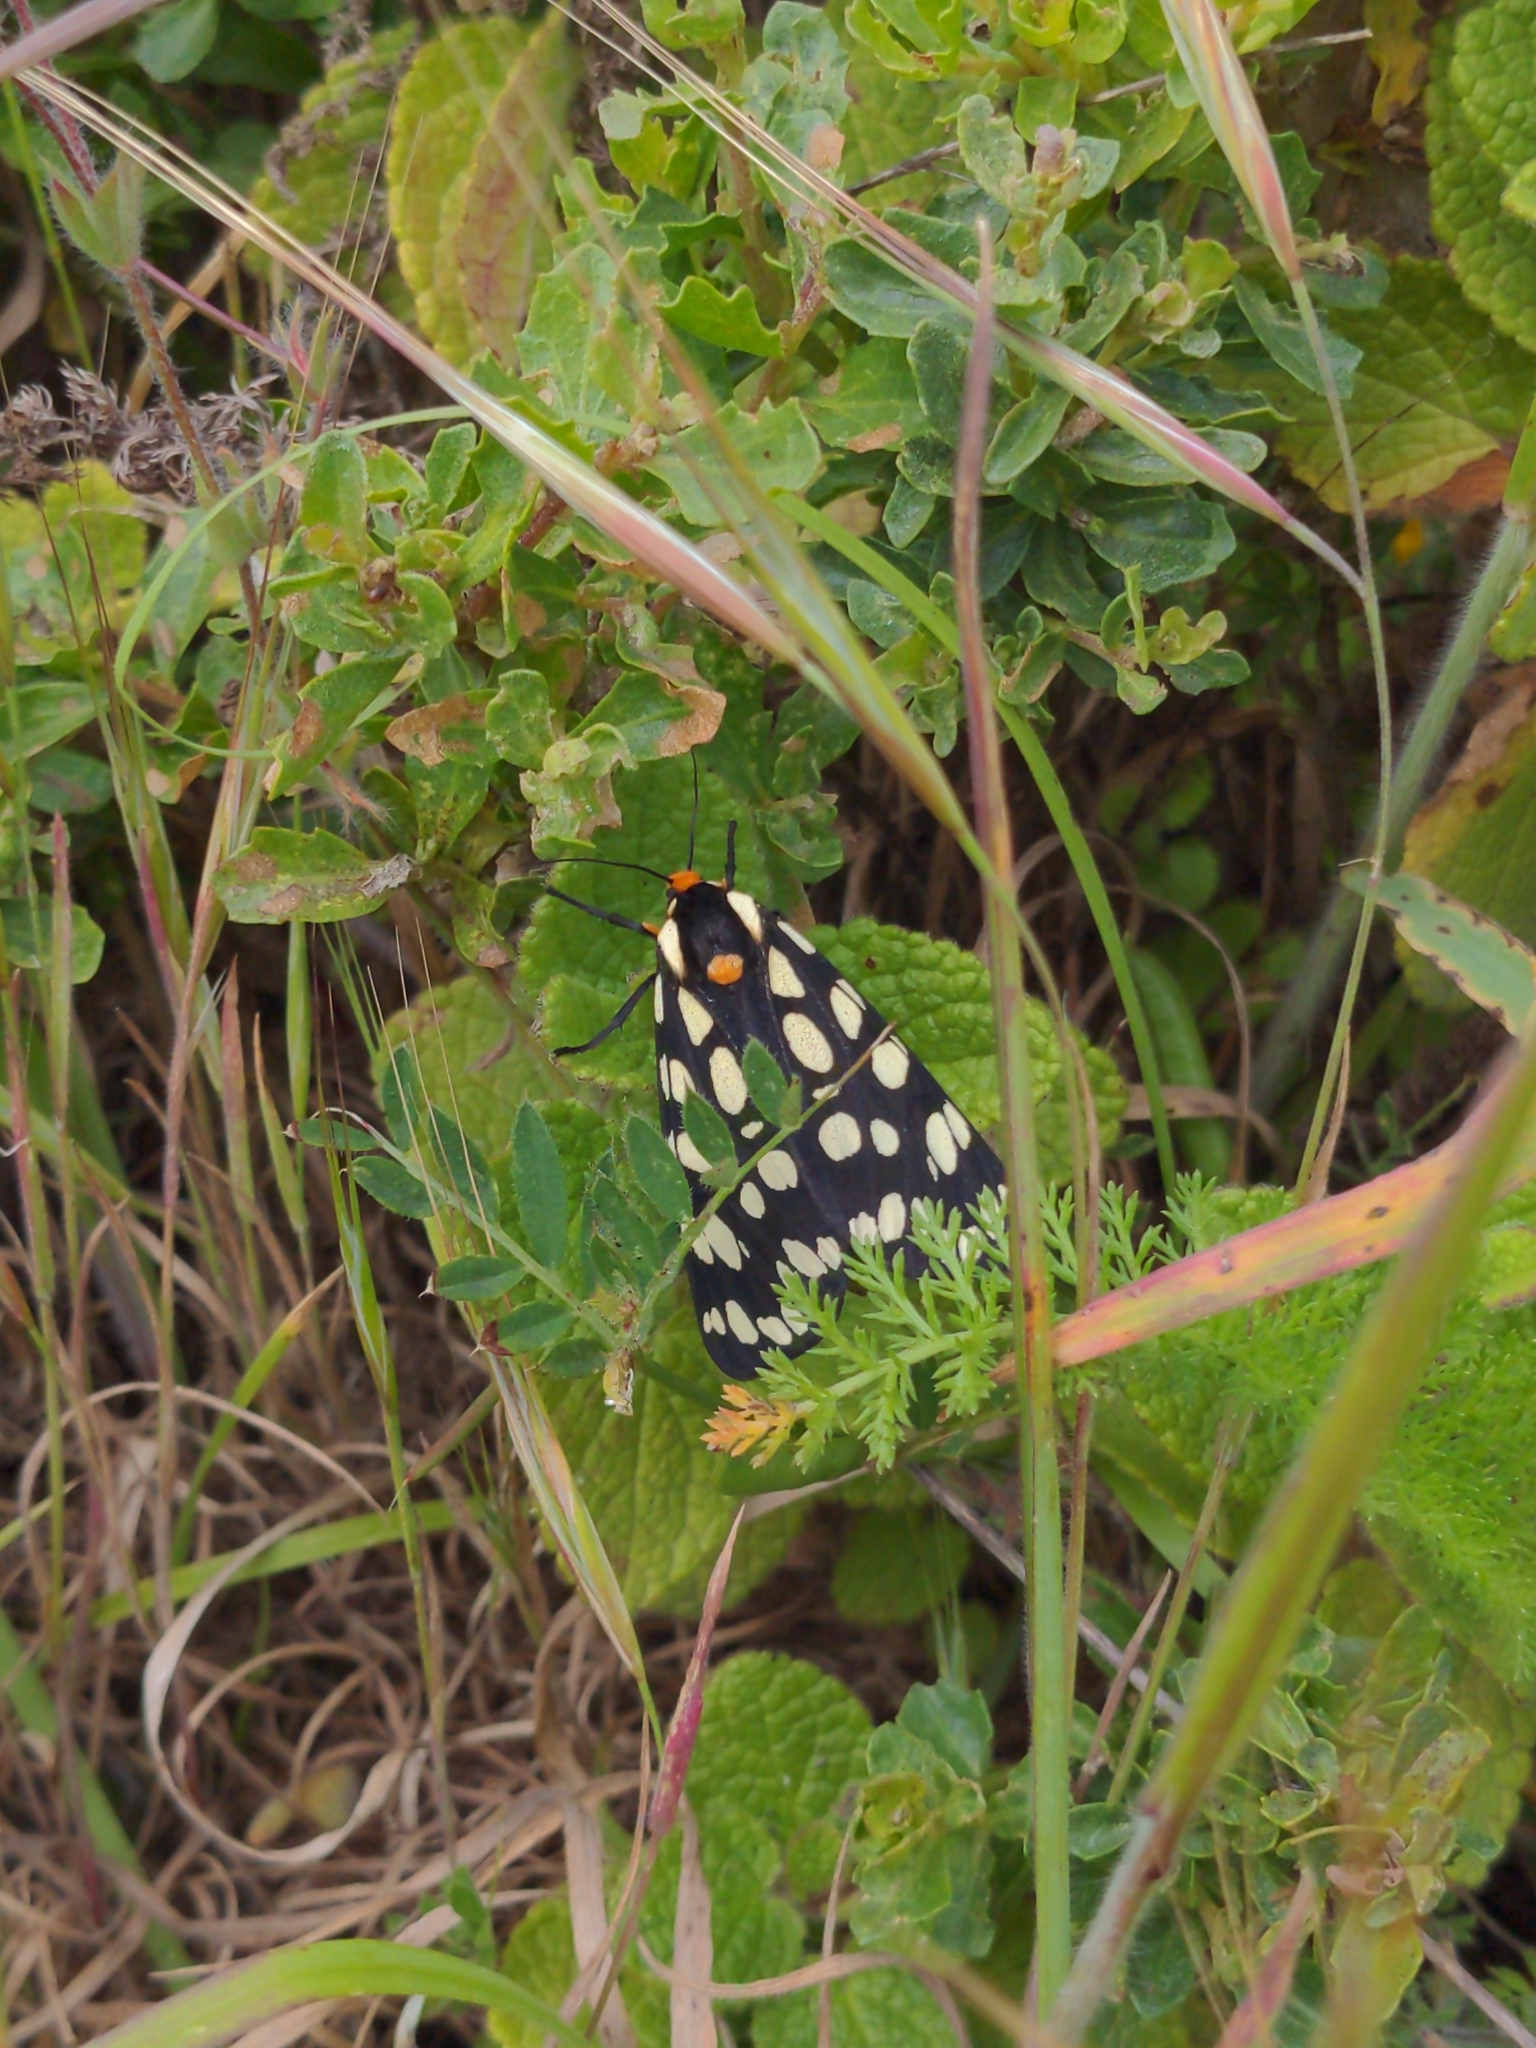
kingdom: Animalia
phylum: Arthropoda
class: Insecta
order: Lepidoptera
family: Erebidae
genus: Arctia
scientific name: Arctia tigrina
